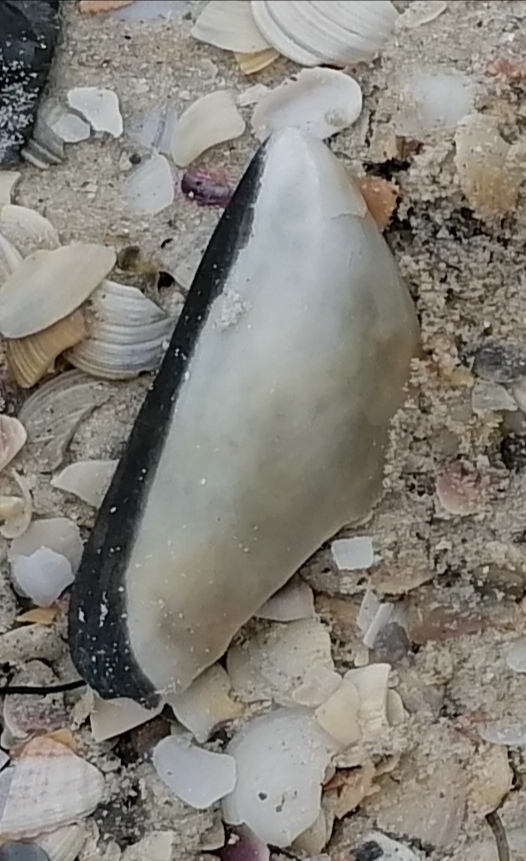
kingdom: Animalia
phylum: Mollusca
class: Bivalvia
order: Mytilida
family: Mytilidae
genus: Mytilus
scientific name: Mytilus galloprovincialis
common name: Mediterranean mussel
